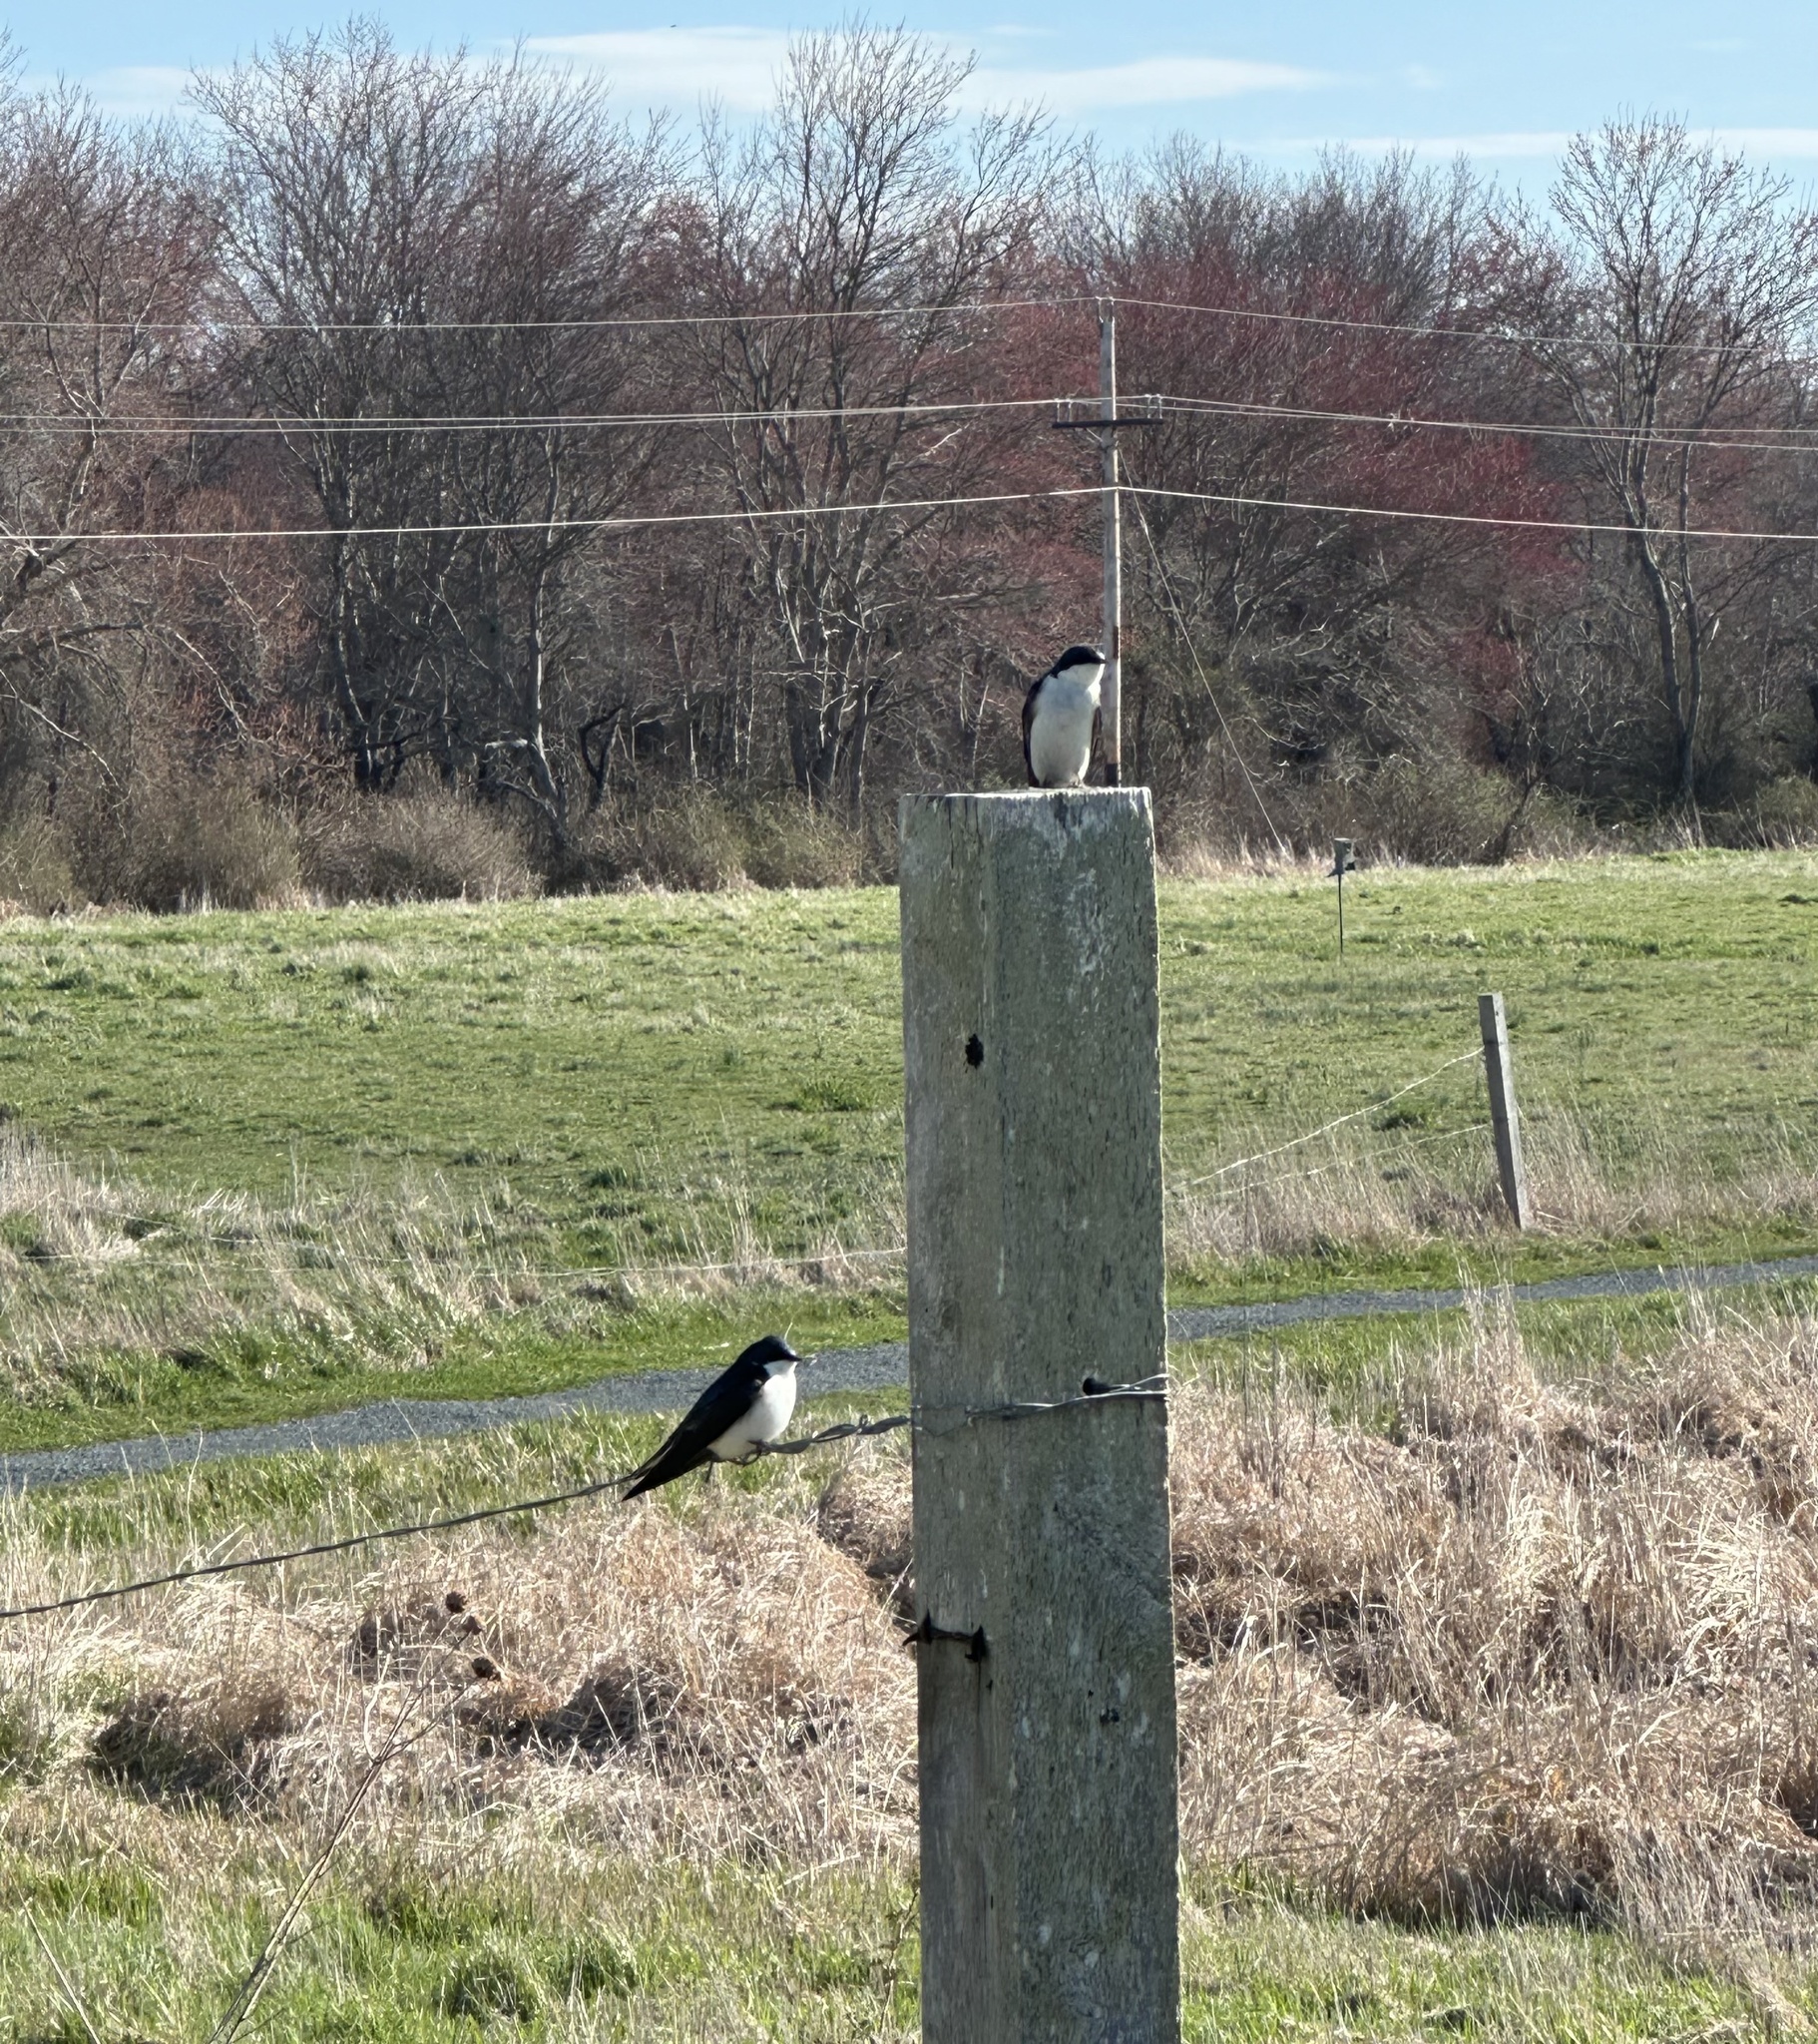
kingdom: Animalia
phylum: Chordata
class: Aves
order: Passeriformes
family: Hirundinidae
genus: Tachycineta
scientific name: Tachycineta bicolor
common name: Tree swallow
